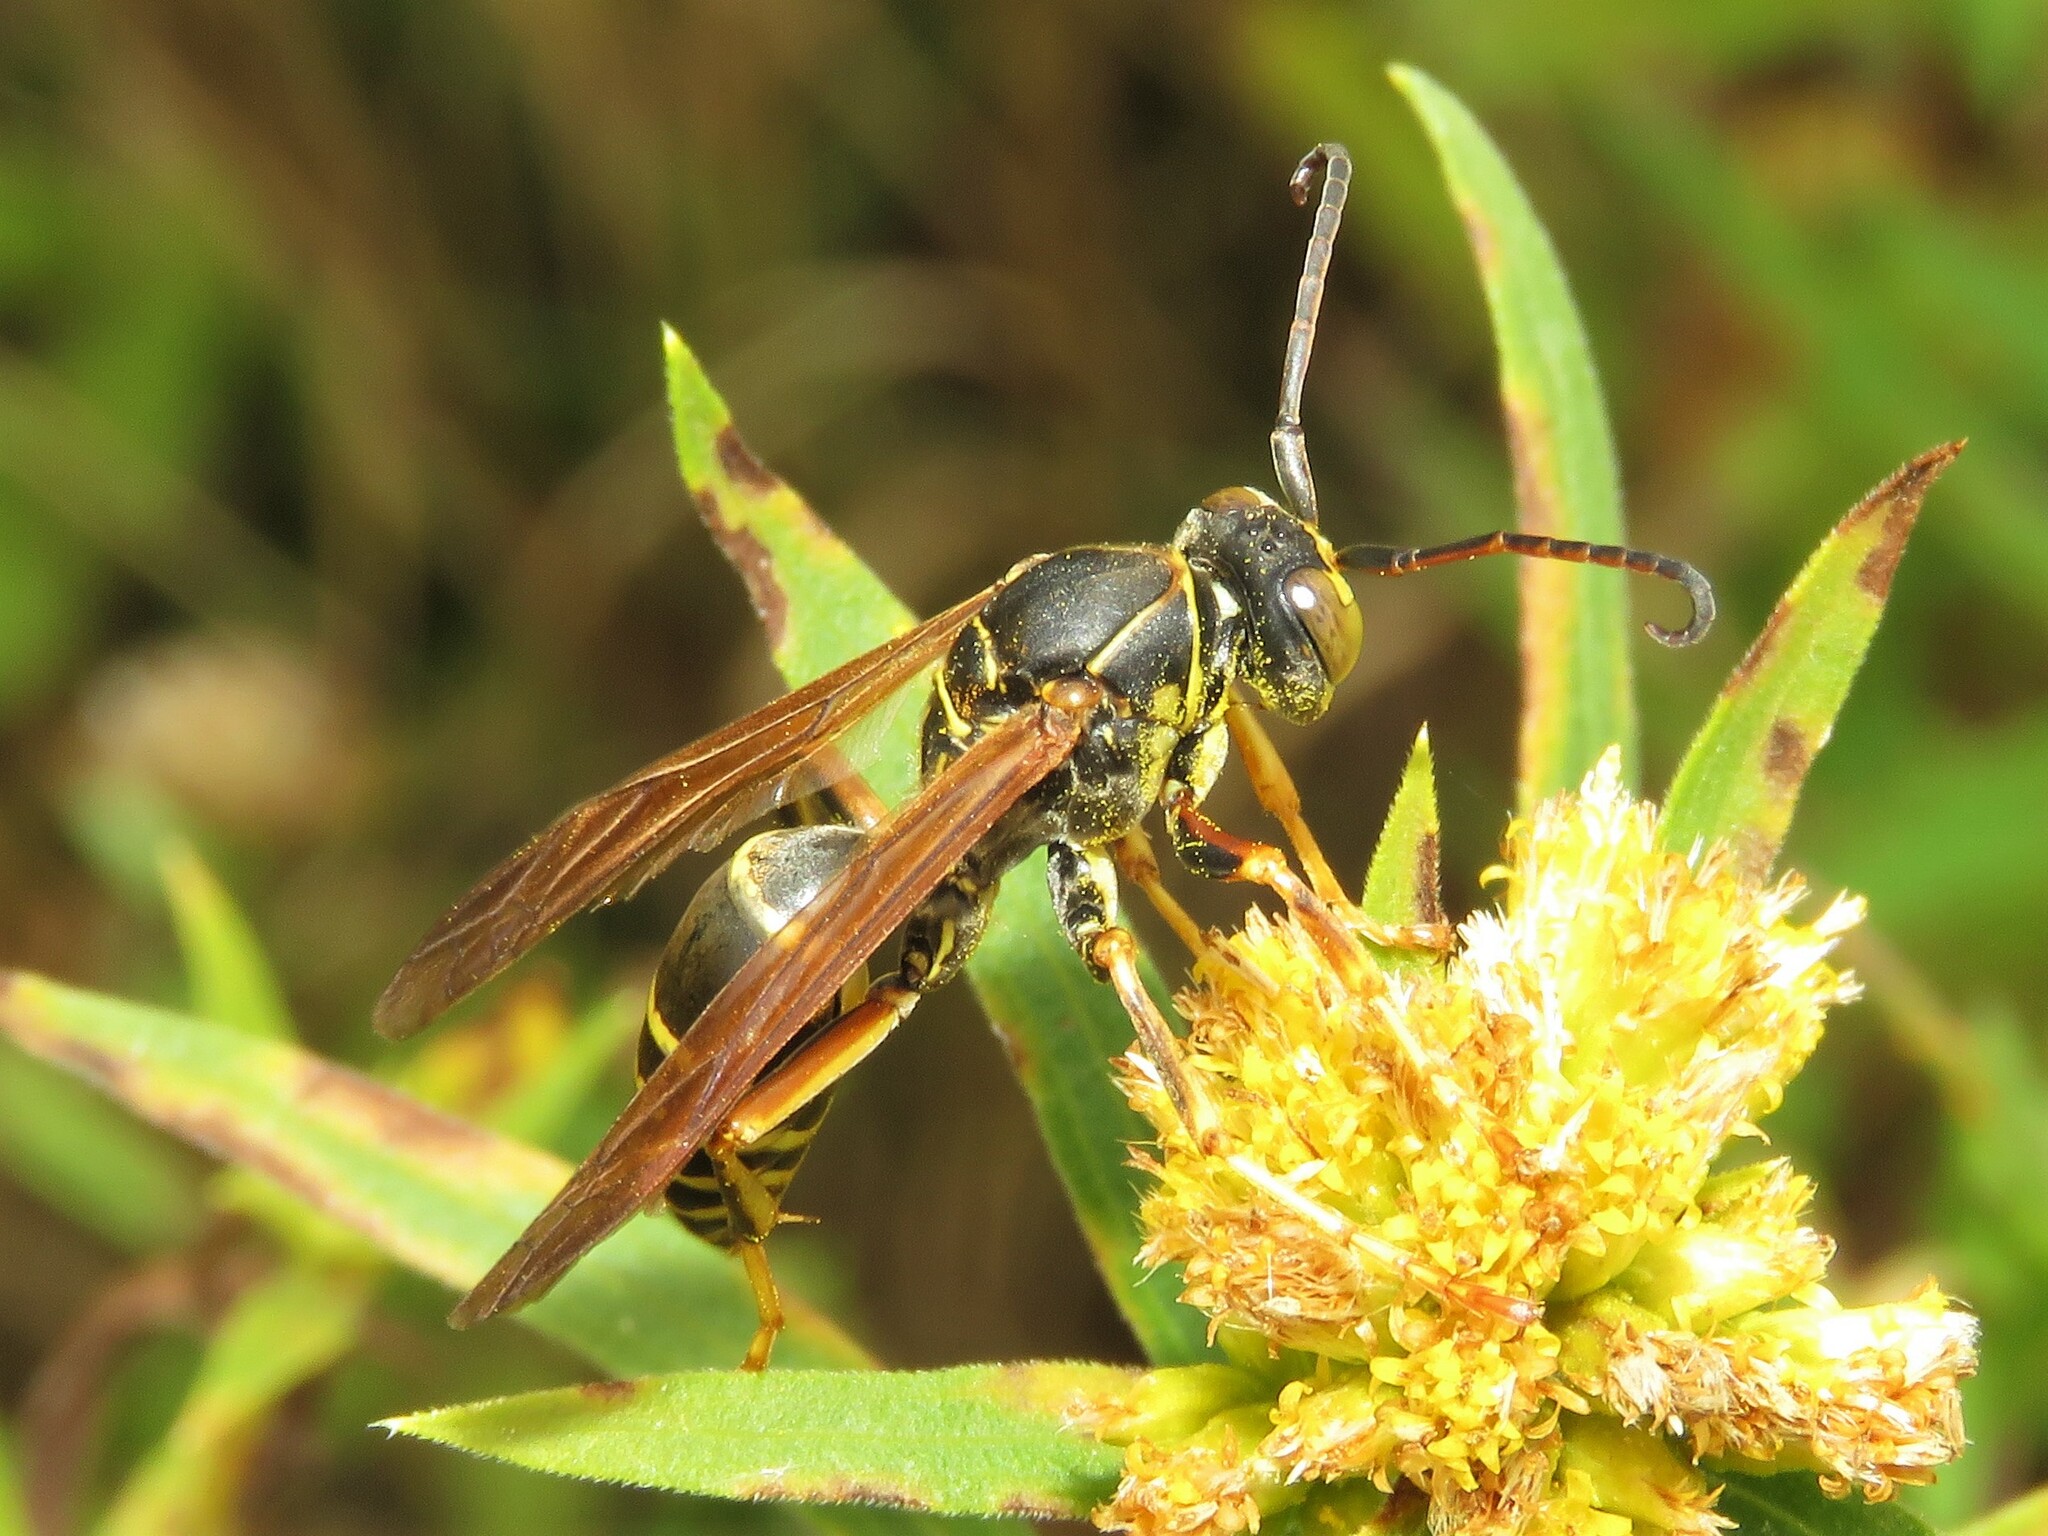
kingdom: Animalia
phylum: Arthropoda
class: Insecta
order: Hymenoptera
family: Eumenidae
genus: Polistes
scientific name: Polistes fuscatus
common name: Dark paper wasp
